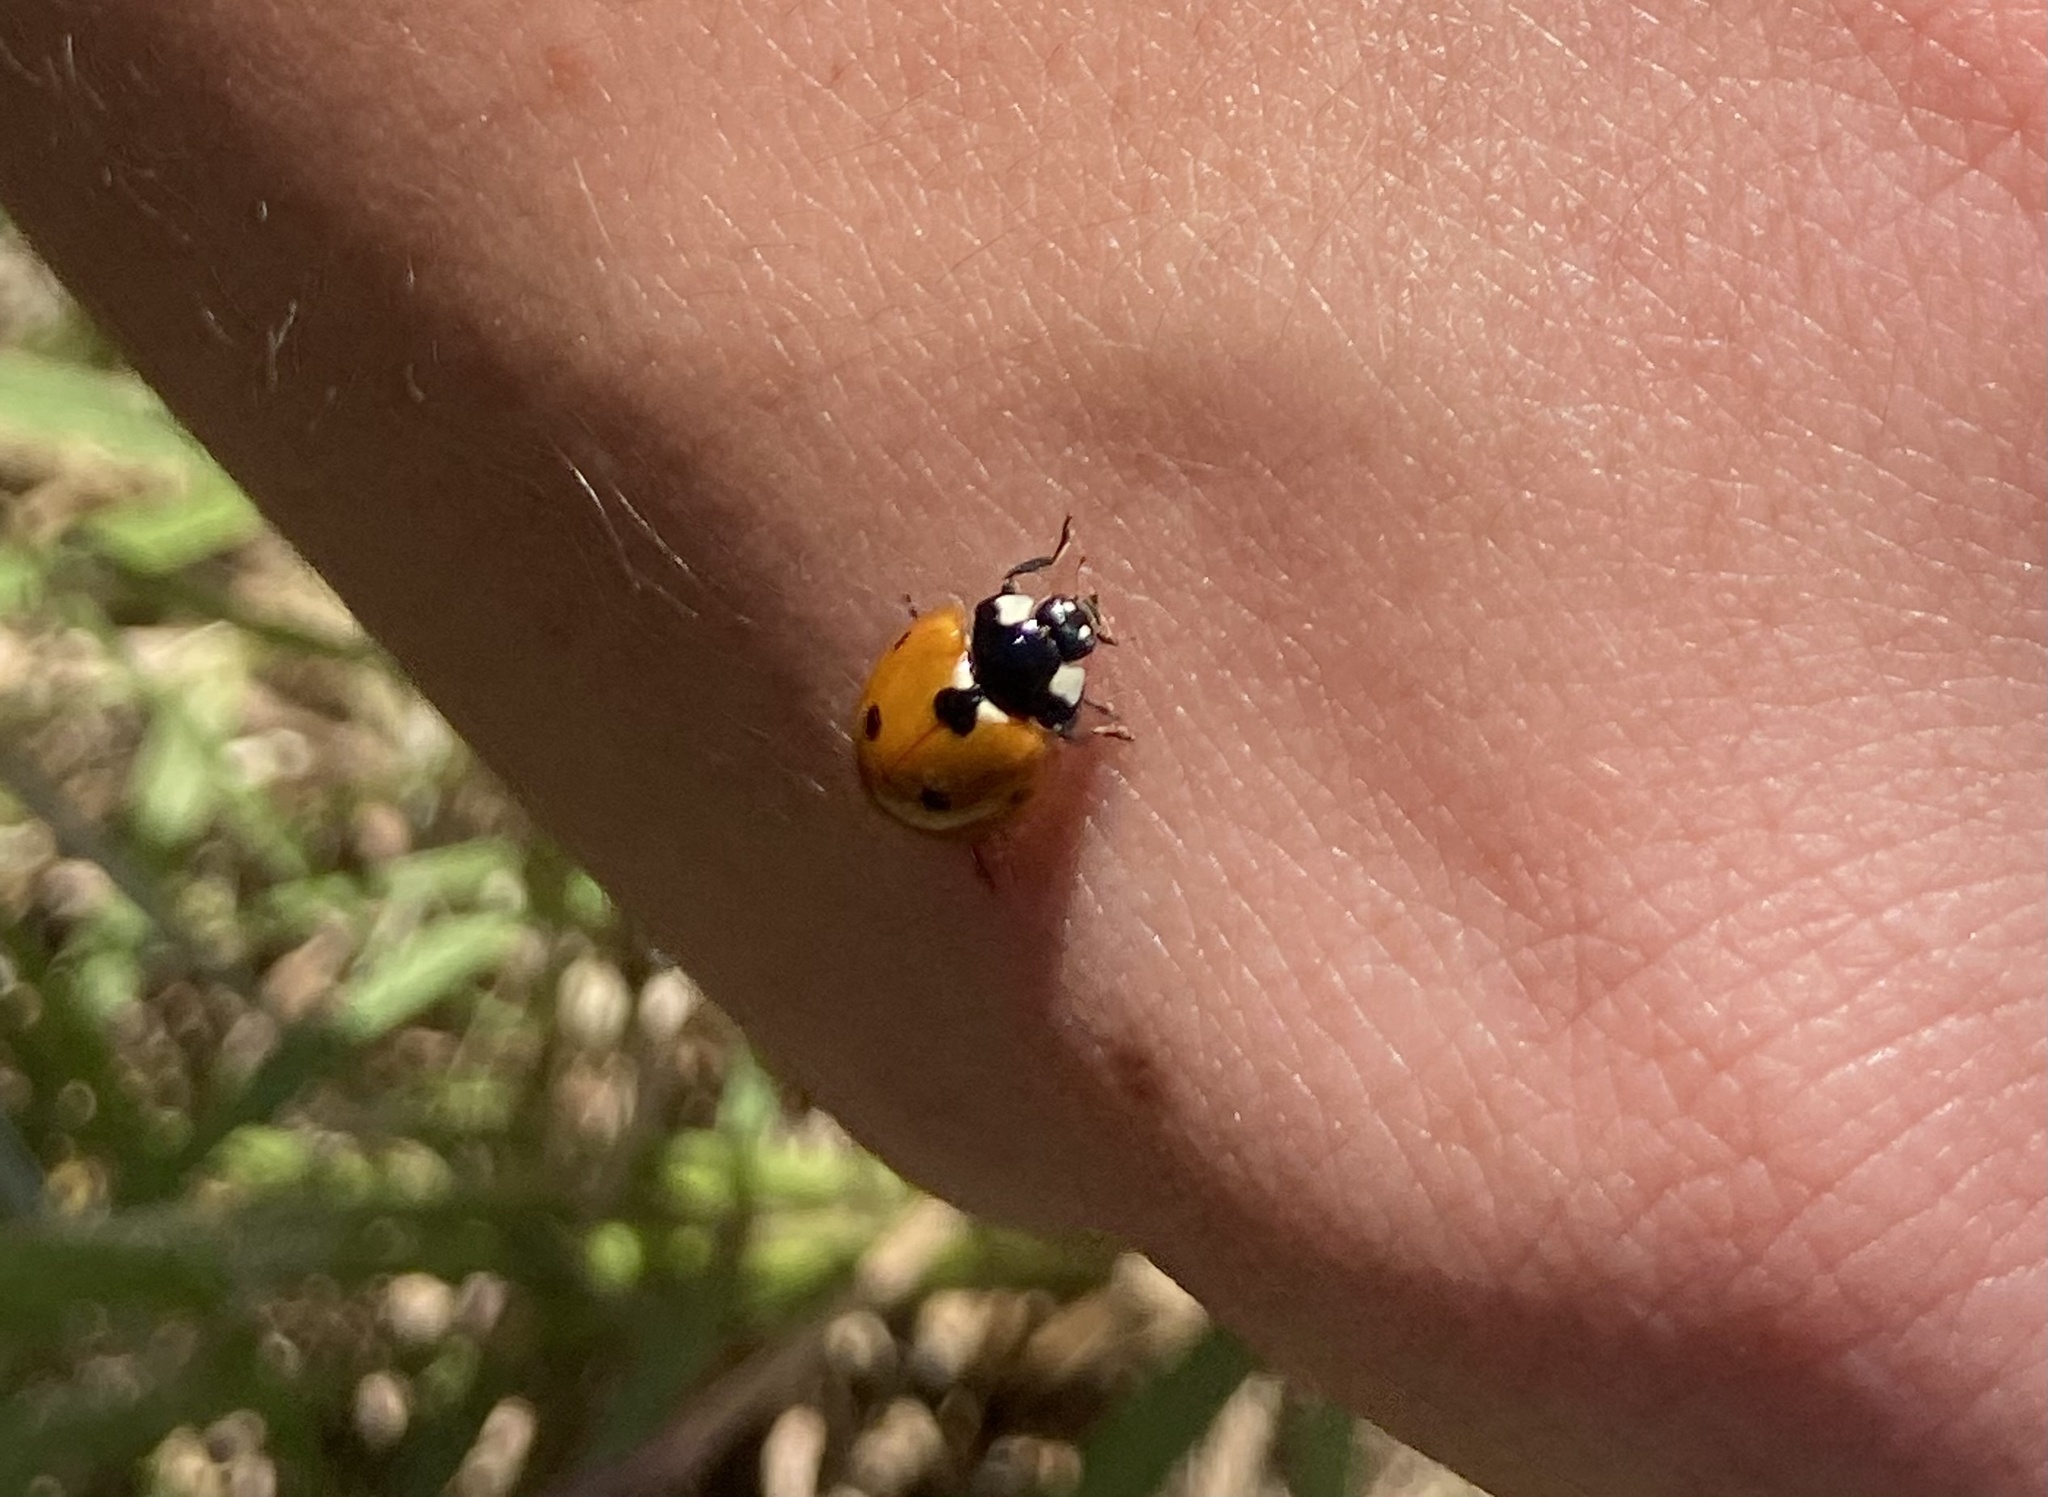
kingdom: Animalia
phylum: Arthropoda
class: Insecta
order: Coleoptera
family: Coccinellidae
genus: Coccinella
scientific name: Coccinella septempunctata
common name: Sevenspotted lady beetle
